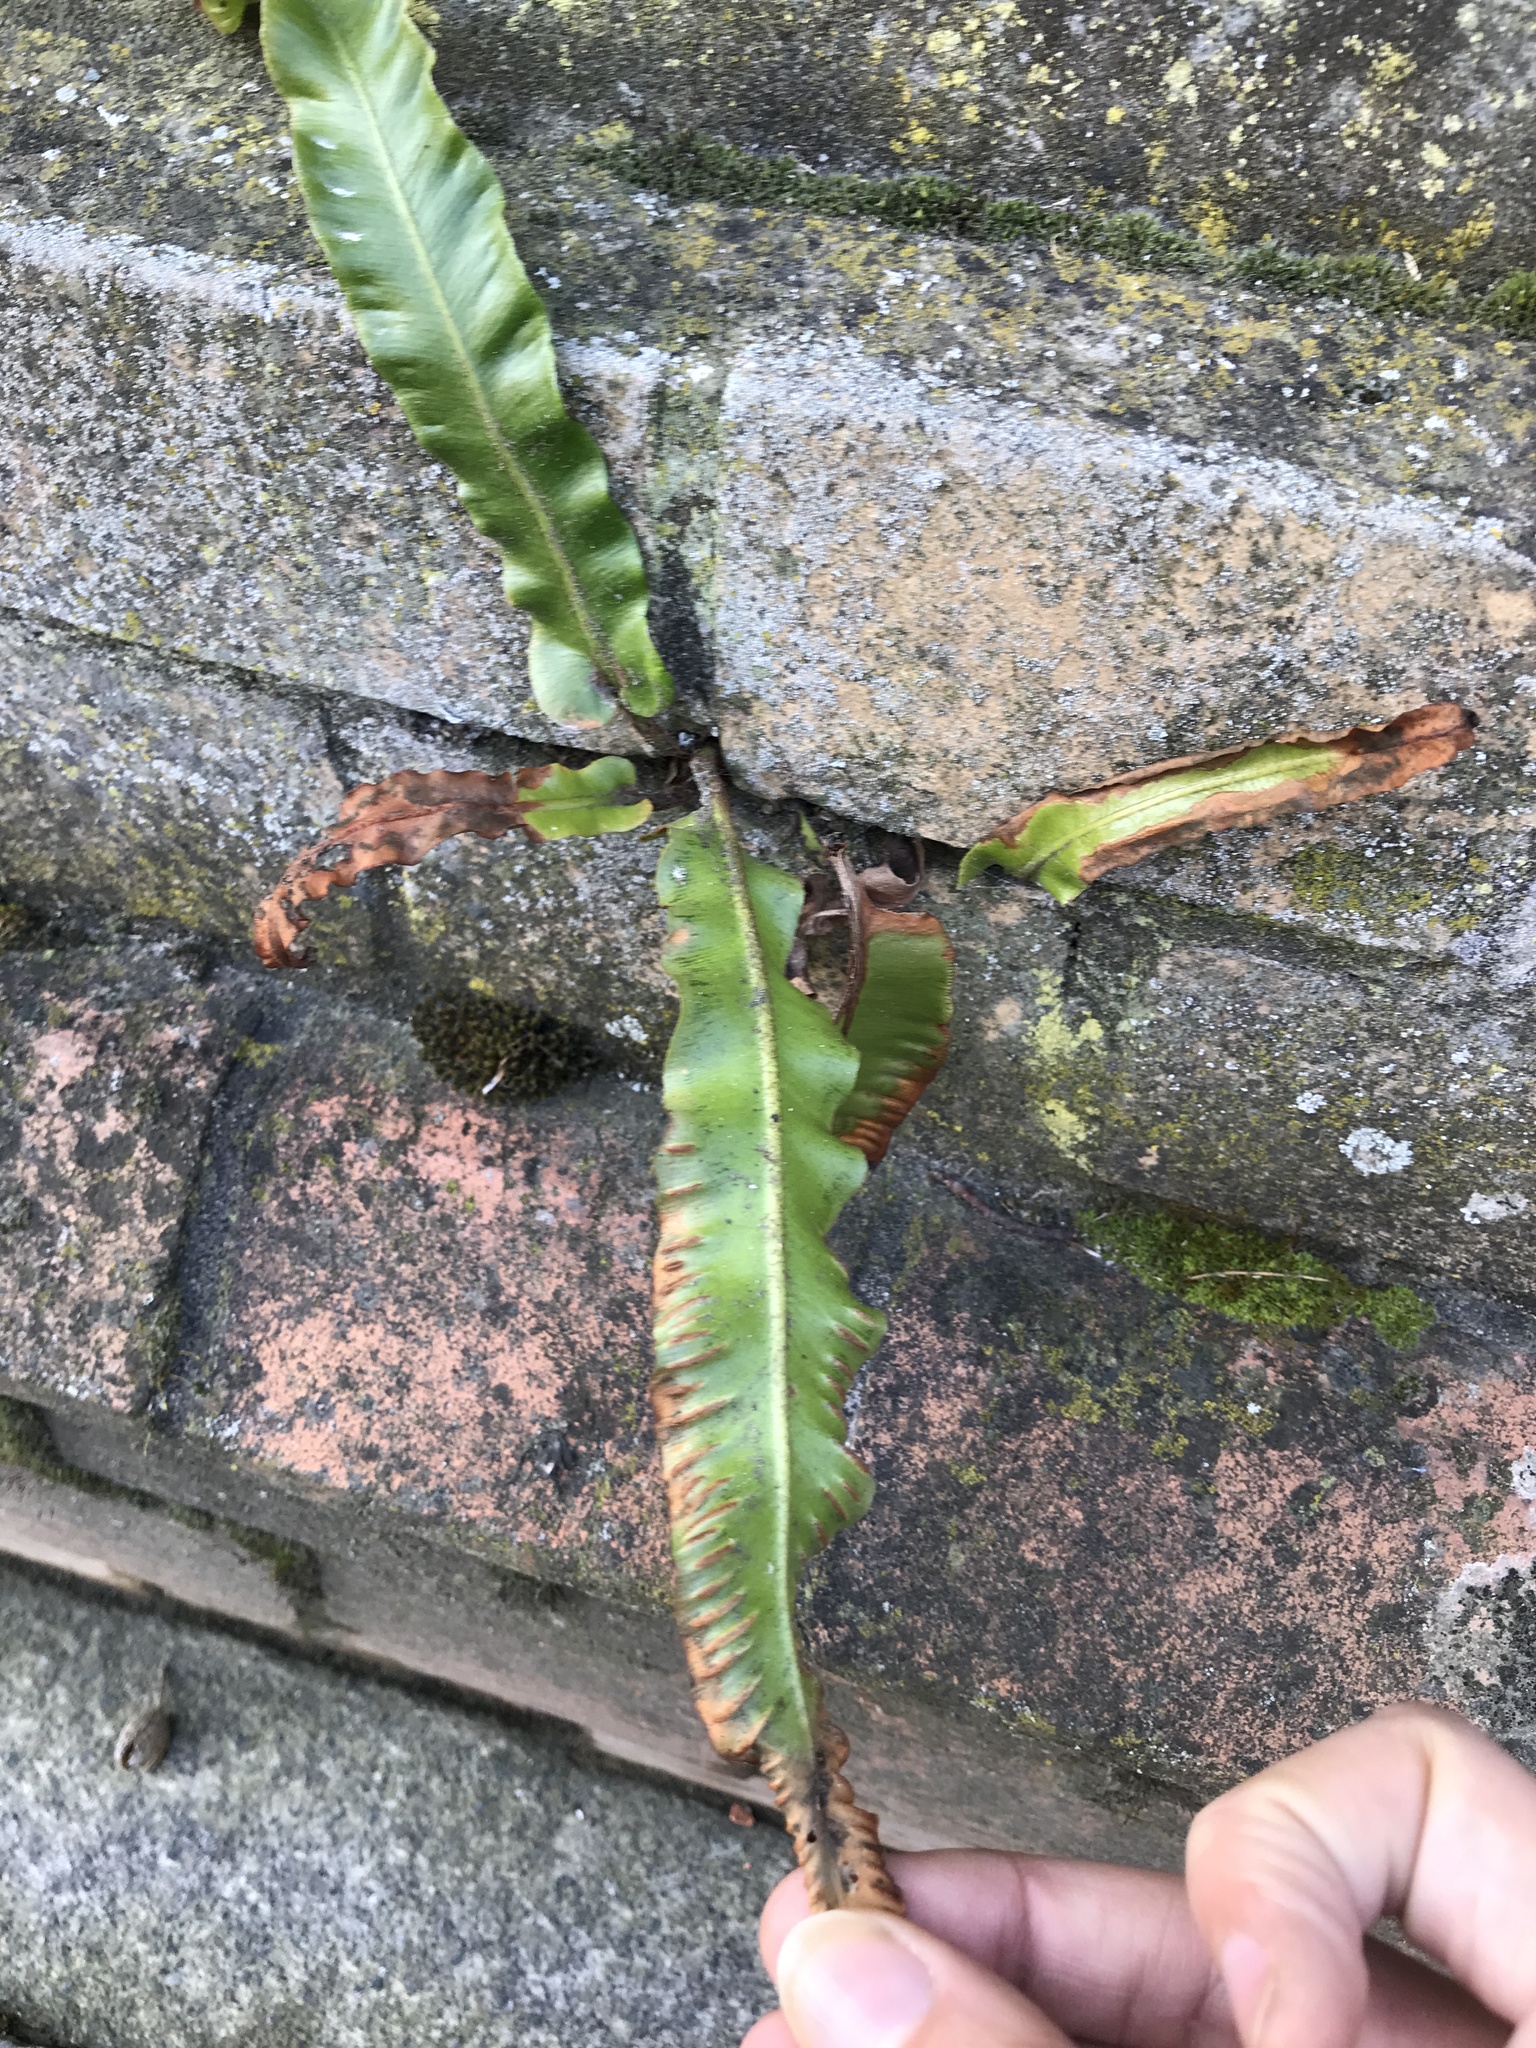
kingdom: Plantae
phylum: Tracheophyta
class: Polypodiopsida
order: Polypodiales
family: Aspleniaceae
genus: Asplenium
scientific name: Asplenium scolopendrium
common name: Hart's-tongue fern
